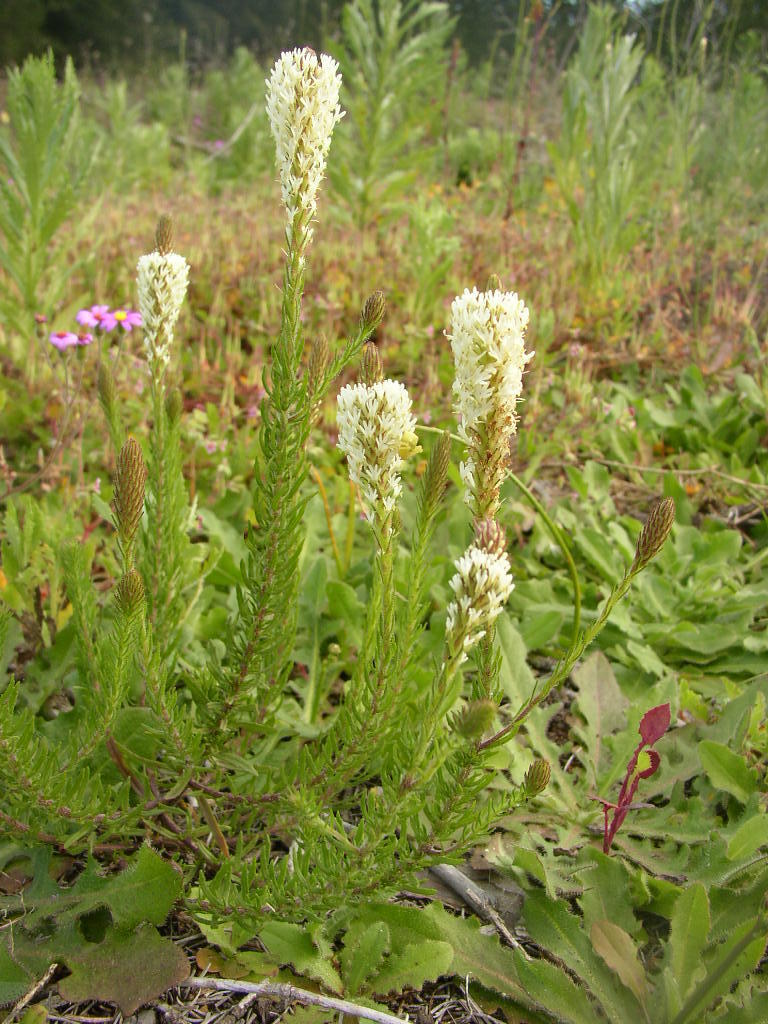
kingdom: Plantae
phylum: Tracheophyta
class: Magnoliopsida
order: Lamiales
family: Scrophulariaceae
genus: Dischisma
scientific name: Dischisma ciliatum
